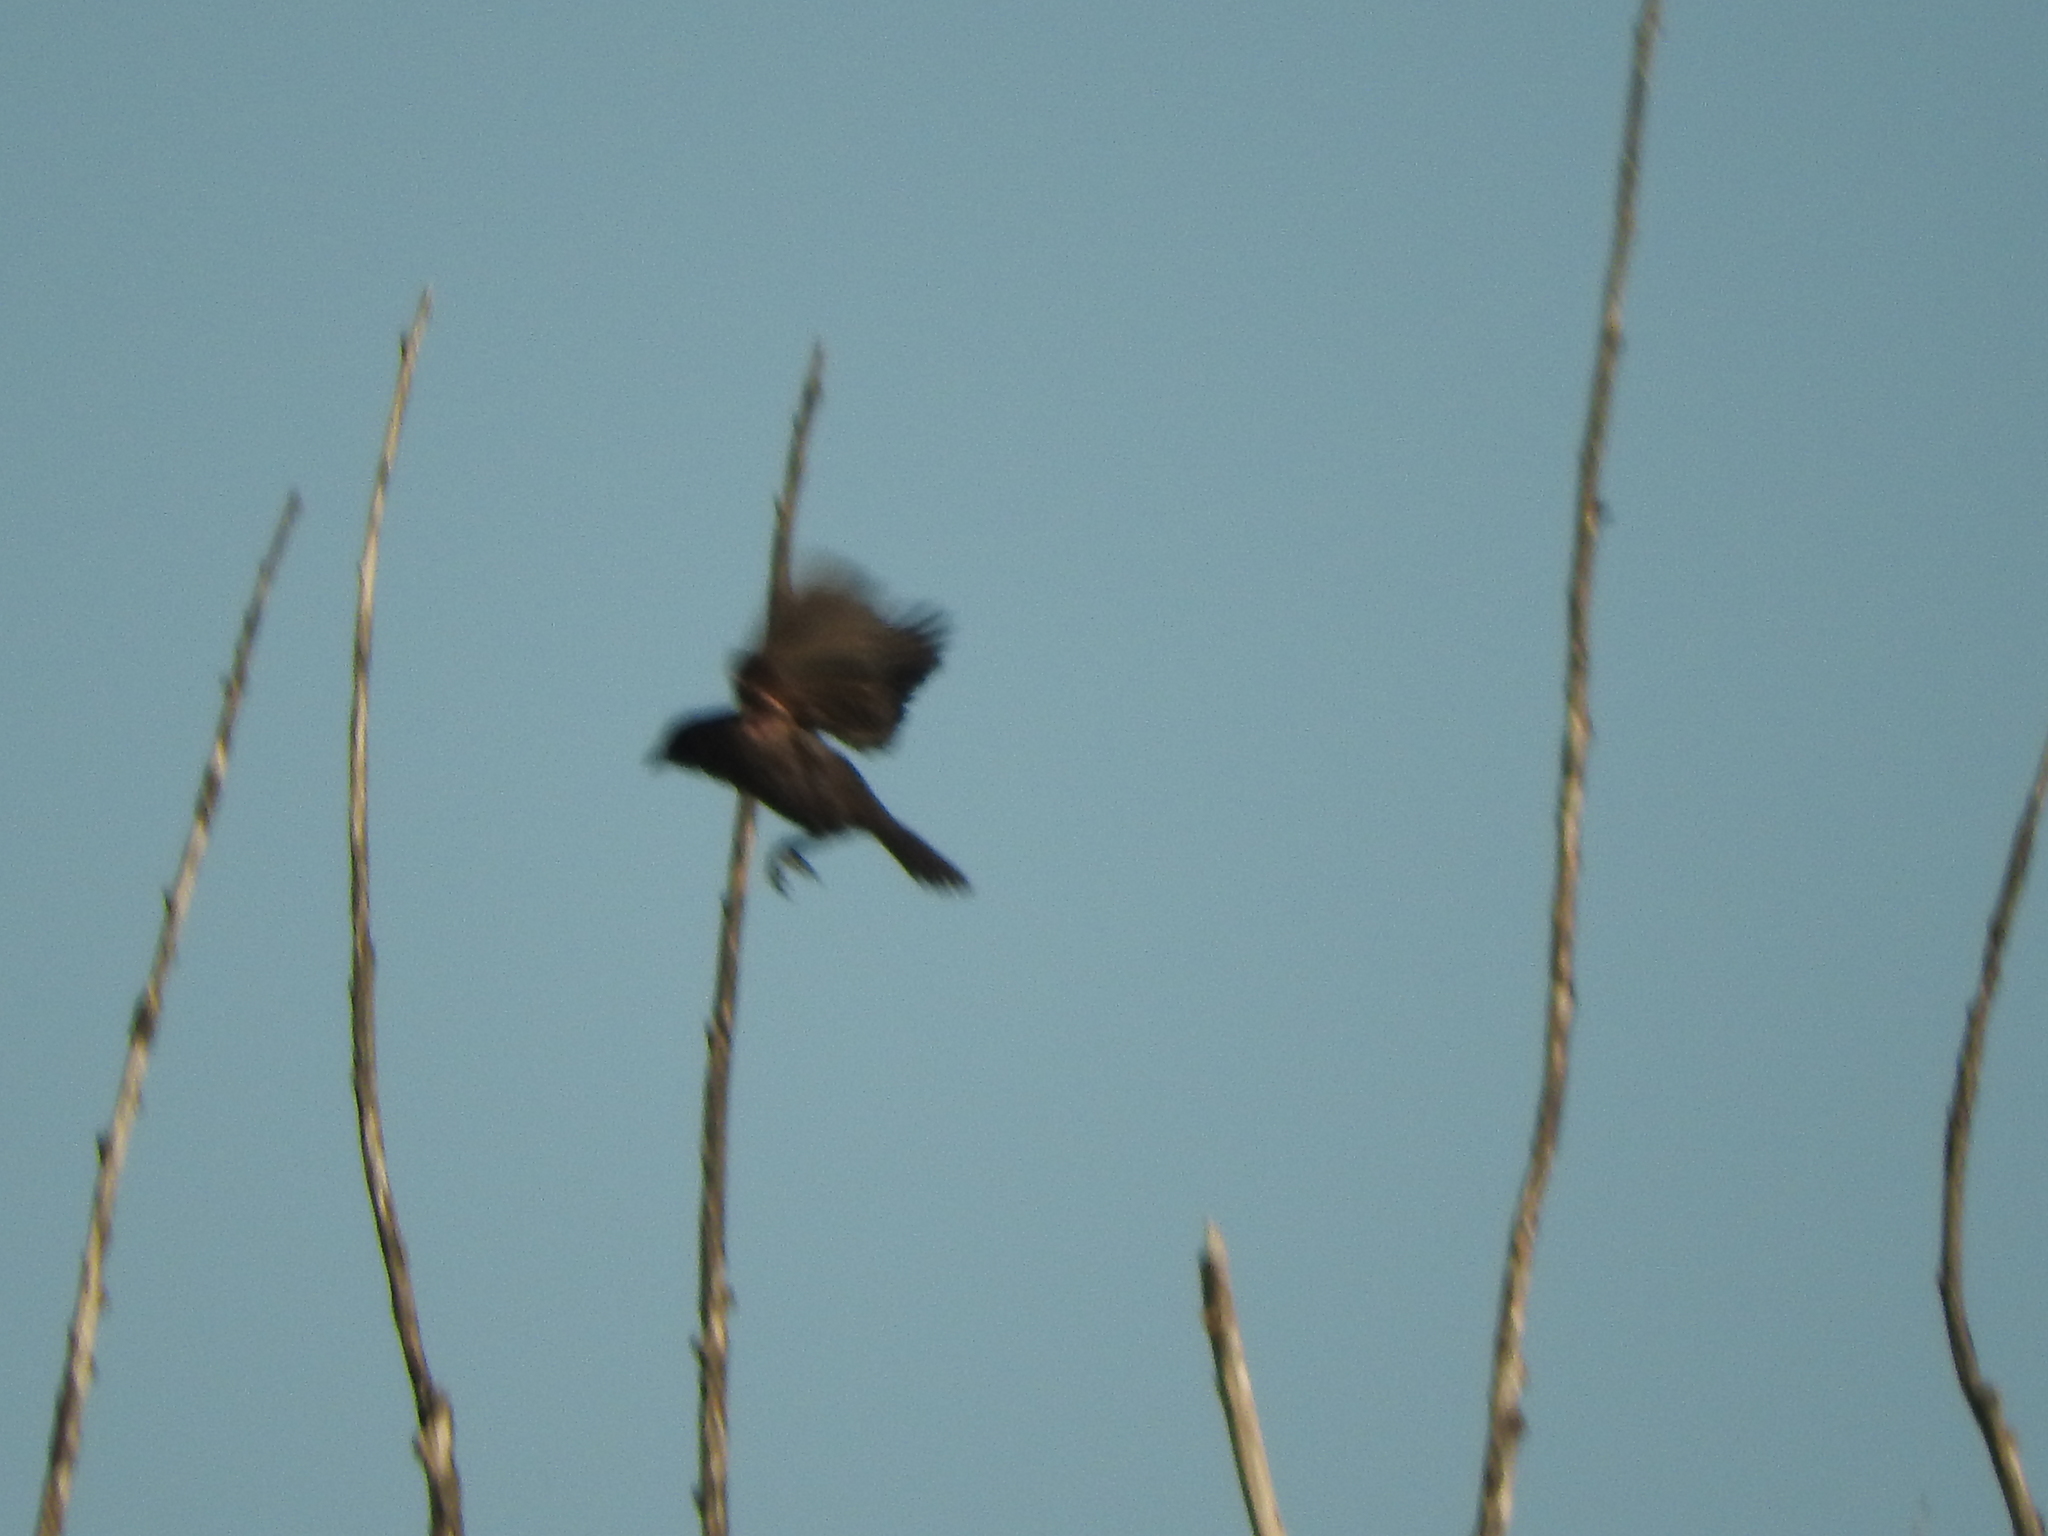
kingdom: Animalia
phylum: Chordata
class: Aves
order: Passeriformes
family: Icteridae
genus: Molothrus
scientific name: Molothrus
